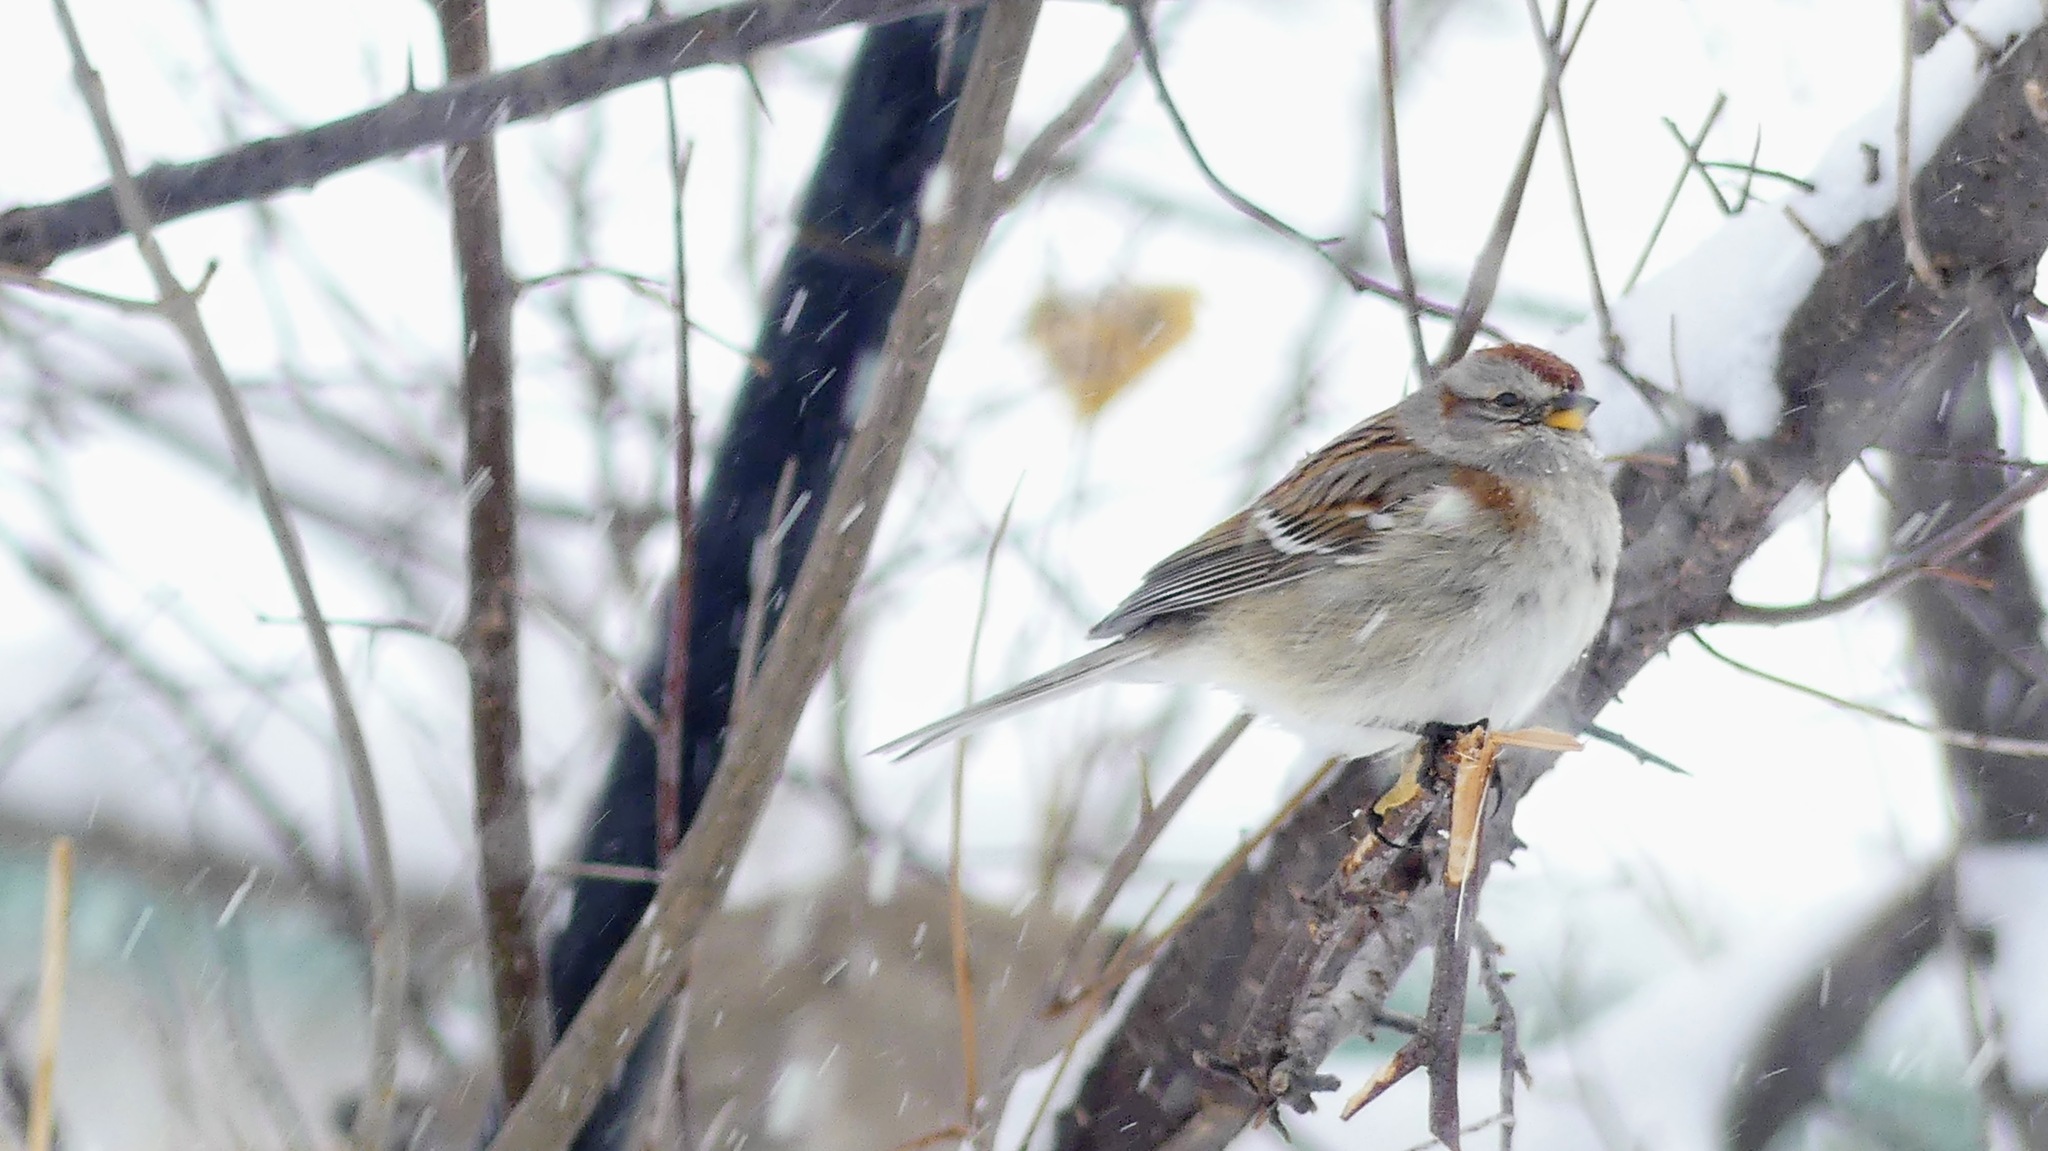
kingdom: Animalia
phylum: Chordata
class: Aves
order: Passeriformes
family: Passerellidae
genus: Spizelloides
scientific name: Spizelloides arborea
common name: American tree sparrow
